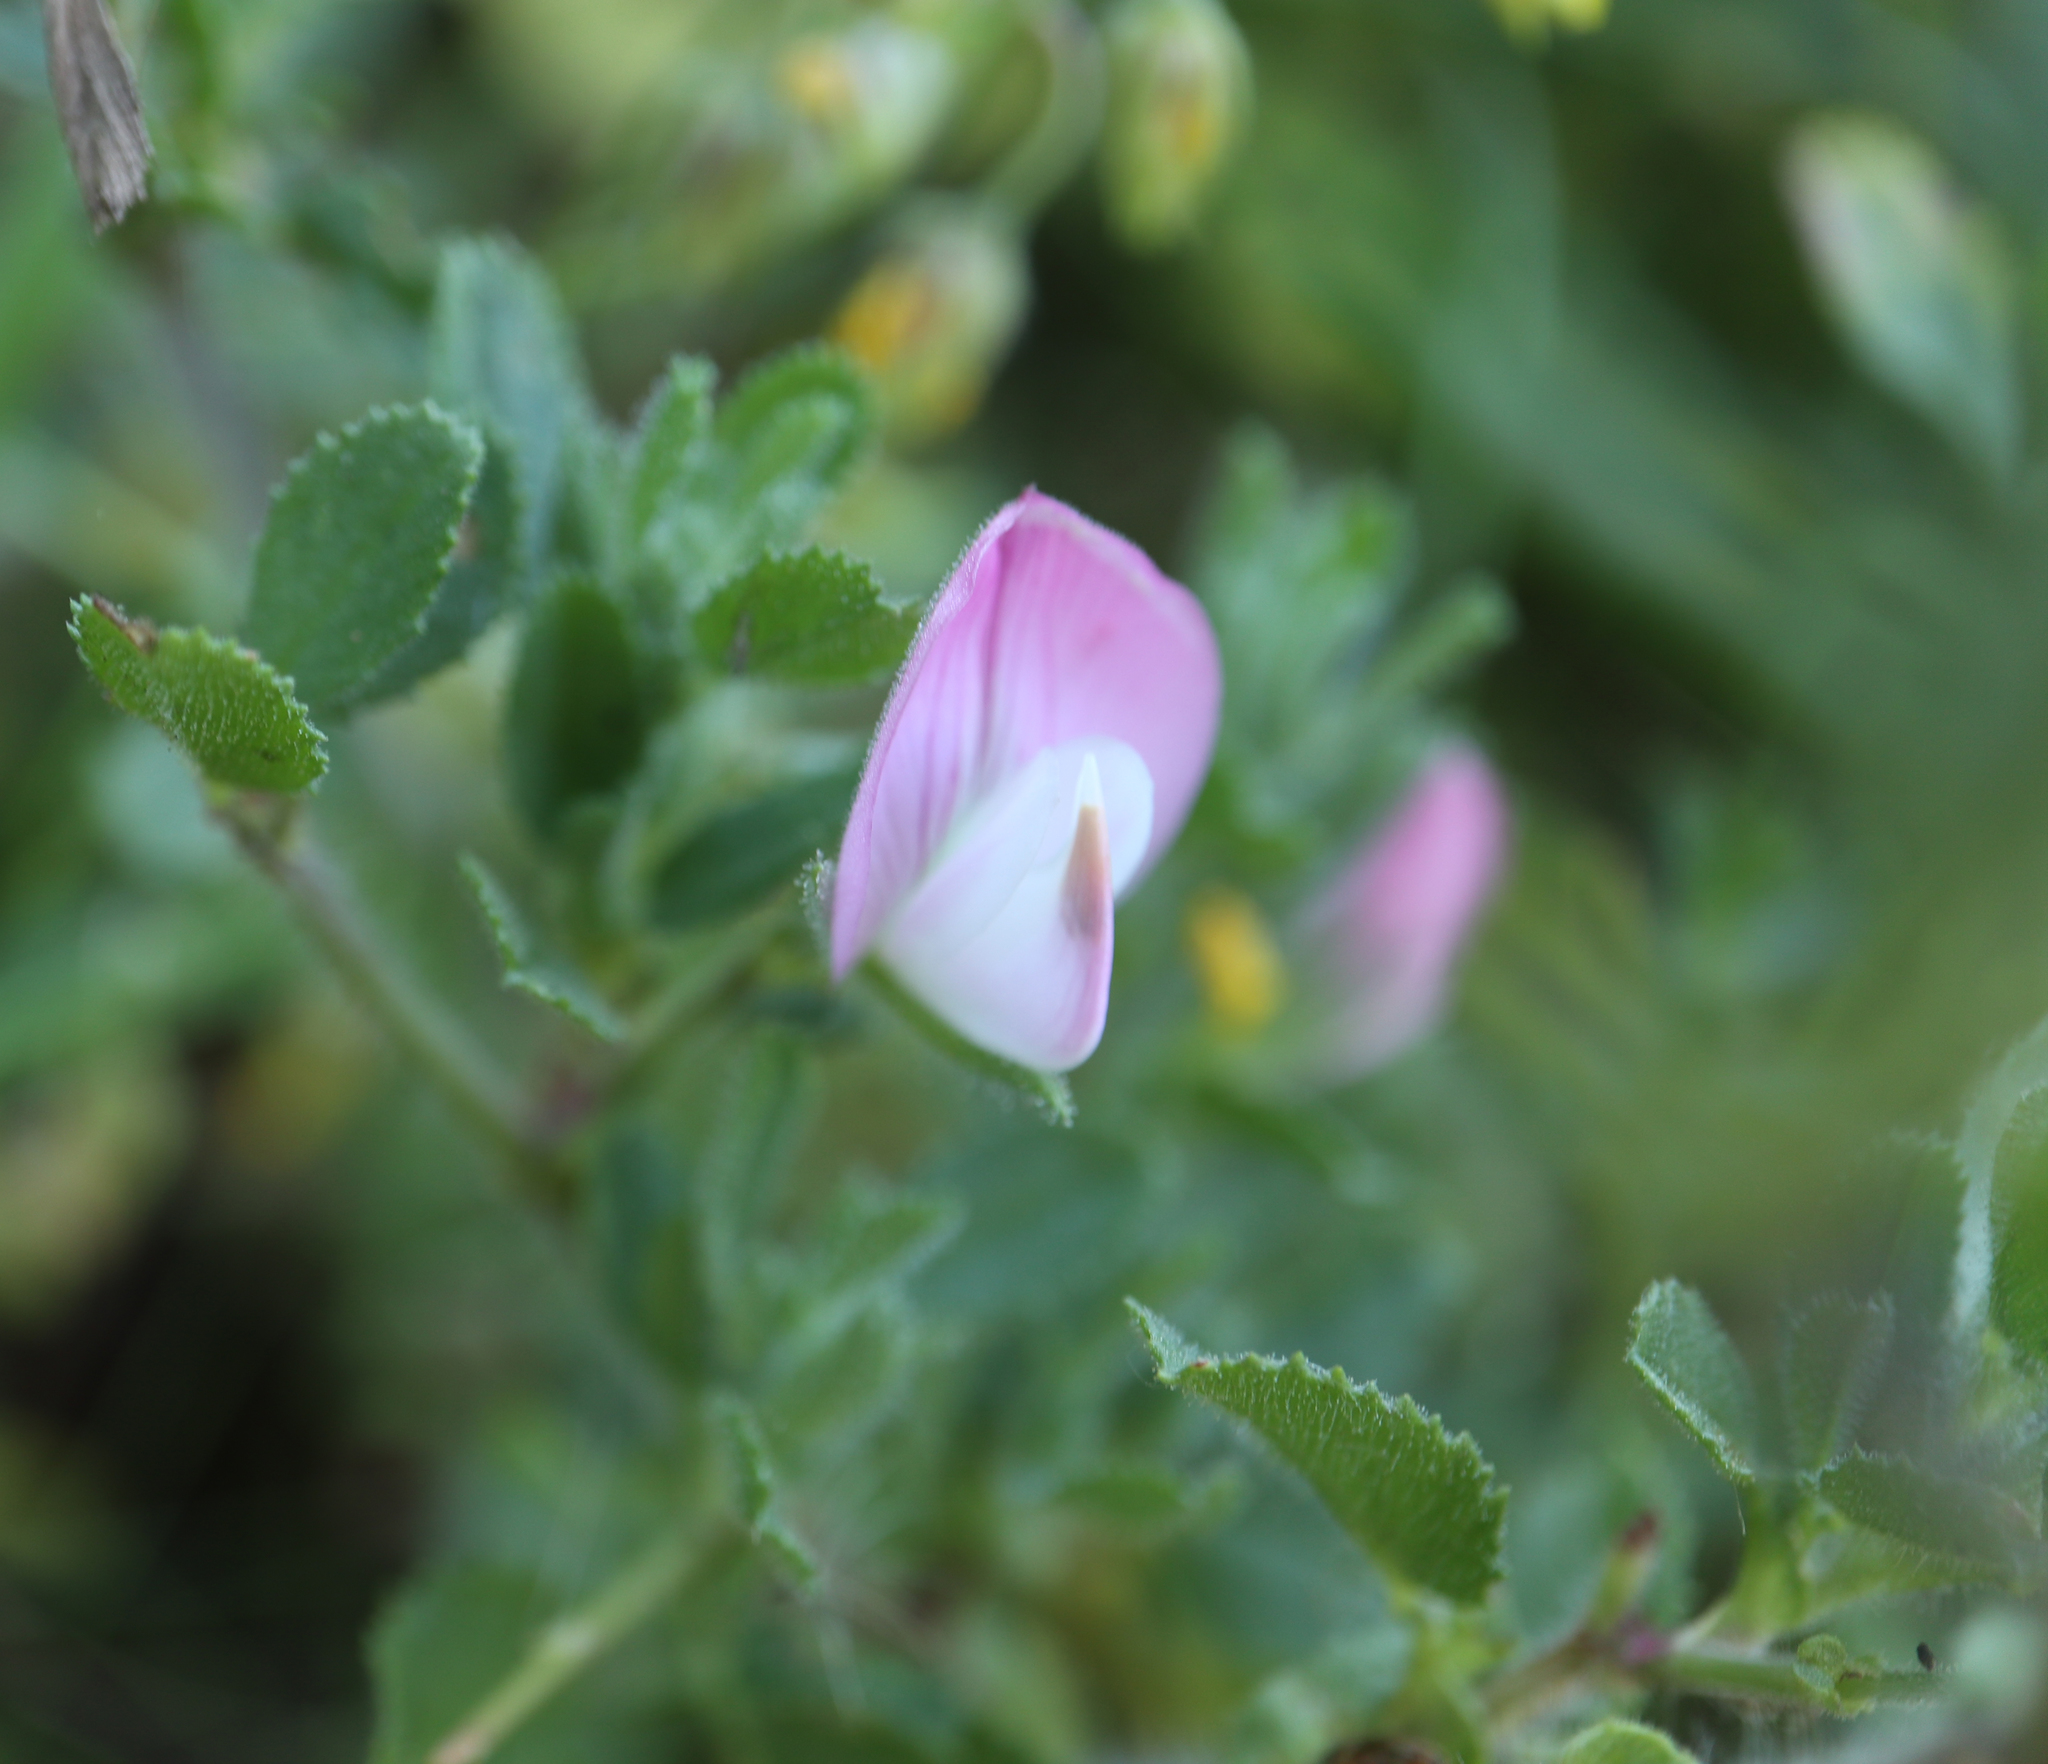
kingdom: Plantae
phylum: Tracheophyta
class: Magnoliopsida
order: Fabales
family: Fabaceae
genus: Ononis
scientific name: Ononis spinosa
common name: Spiny restharrow
